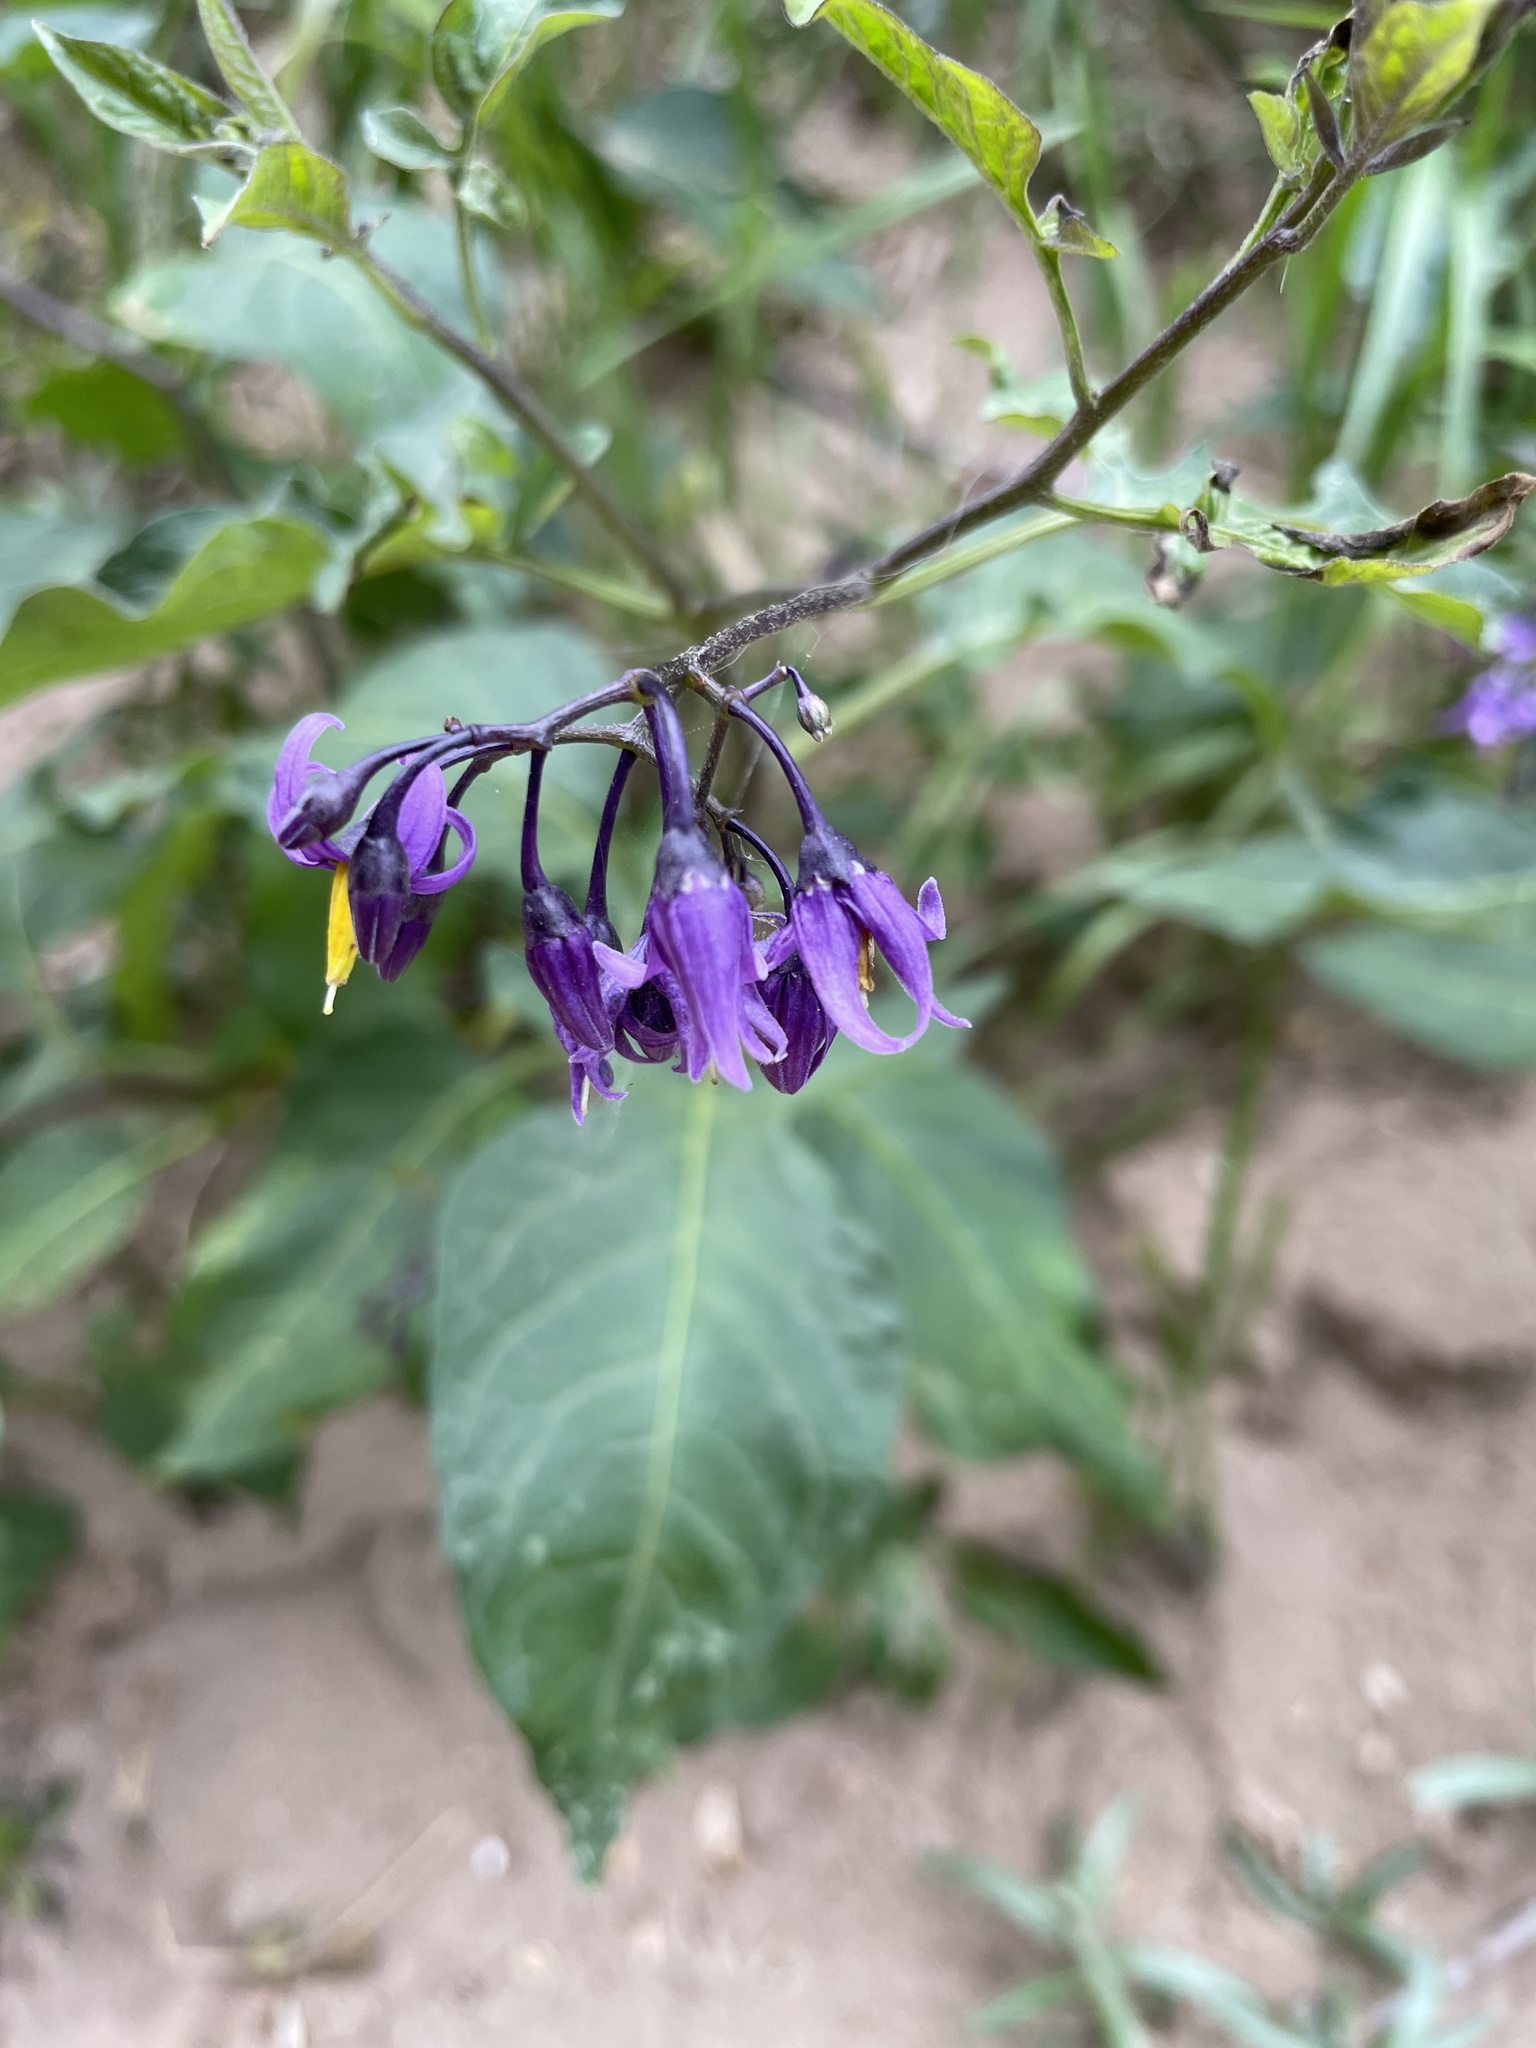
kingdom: Plantae
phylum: Tracheophyta
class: Magnoliopsida
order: Solanales
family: Solanaceae
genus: Solanum
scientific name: Solanum dulcamara
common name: Climbing nightshade
